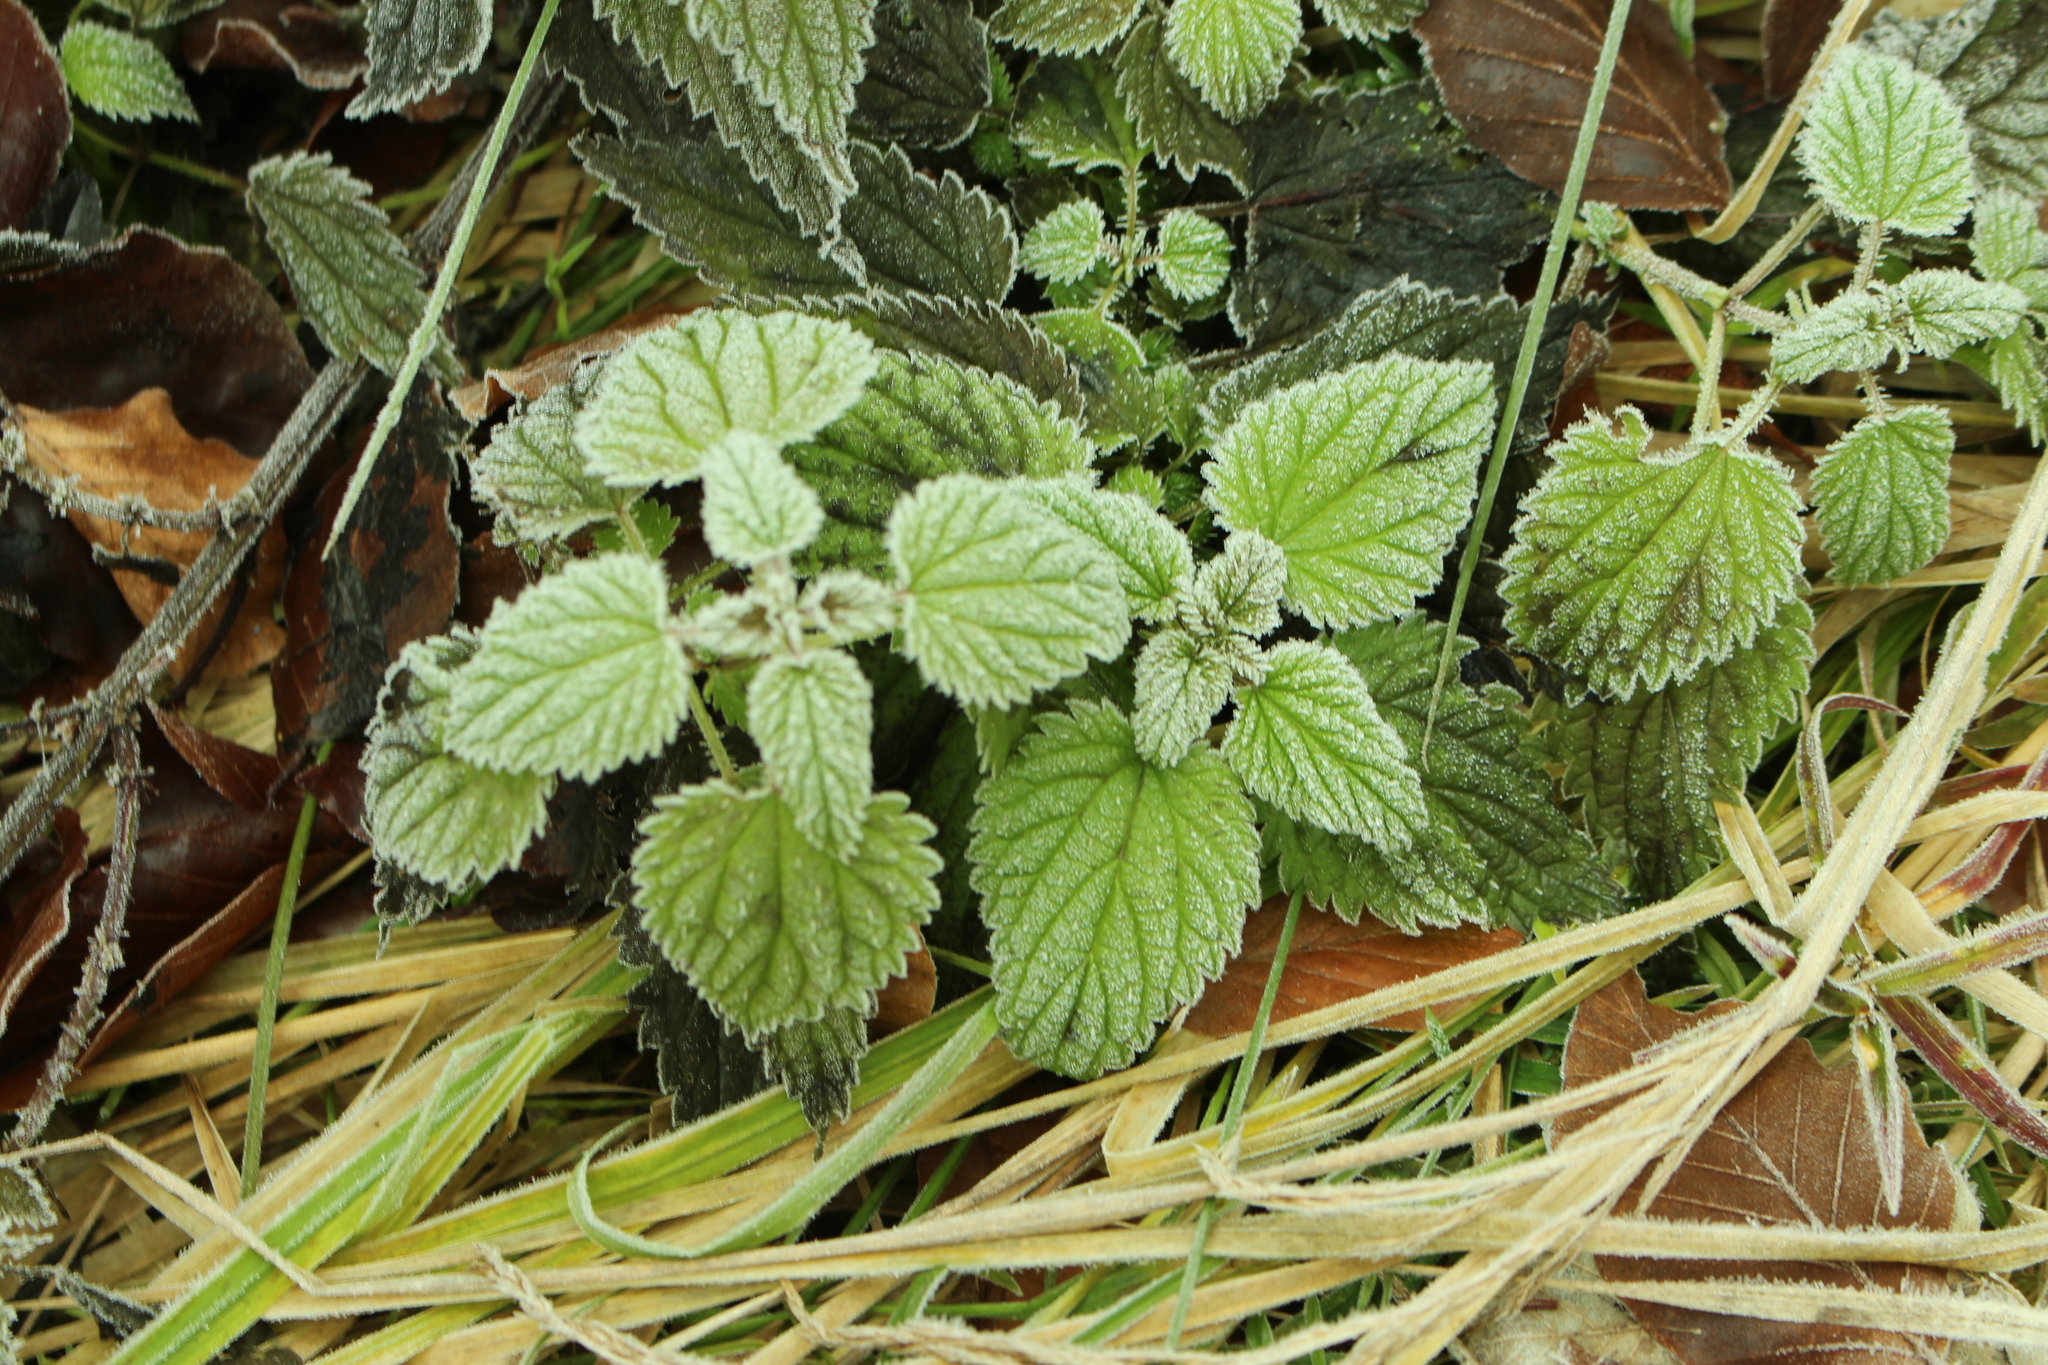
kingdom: Plantae
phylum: Tracheophyta
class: Magnoliopsida
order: Rosales
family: Urticaceae
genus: Urtica
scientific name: Urtica dioica
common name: Common nettle
